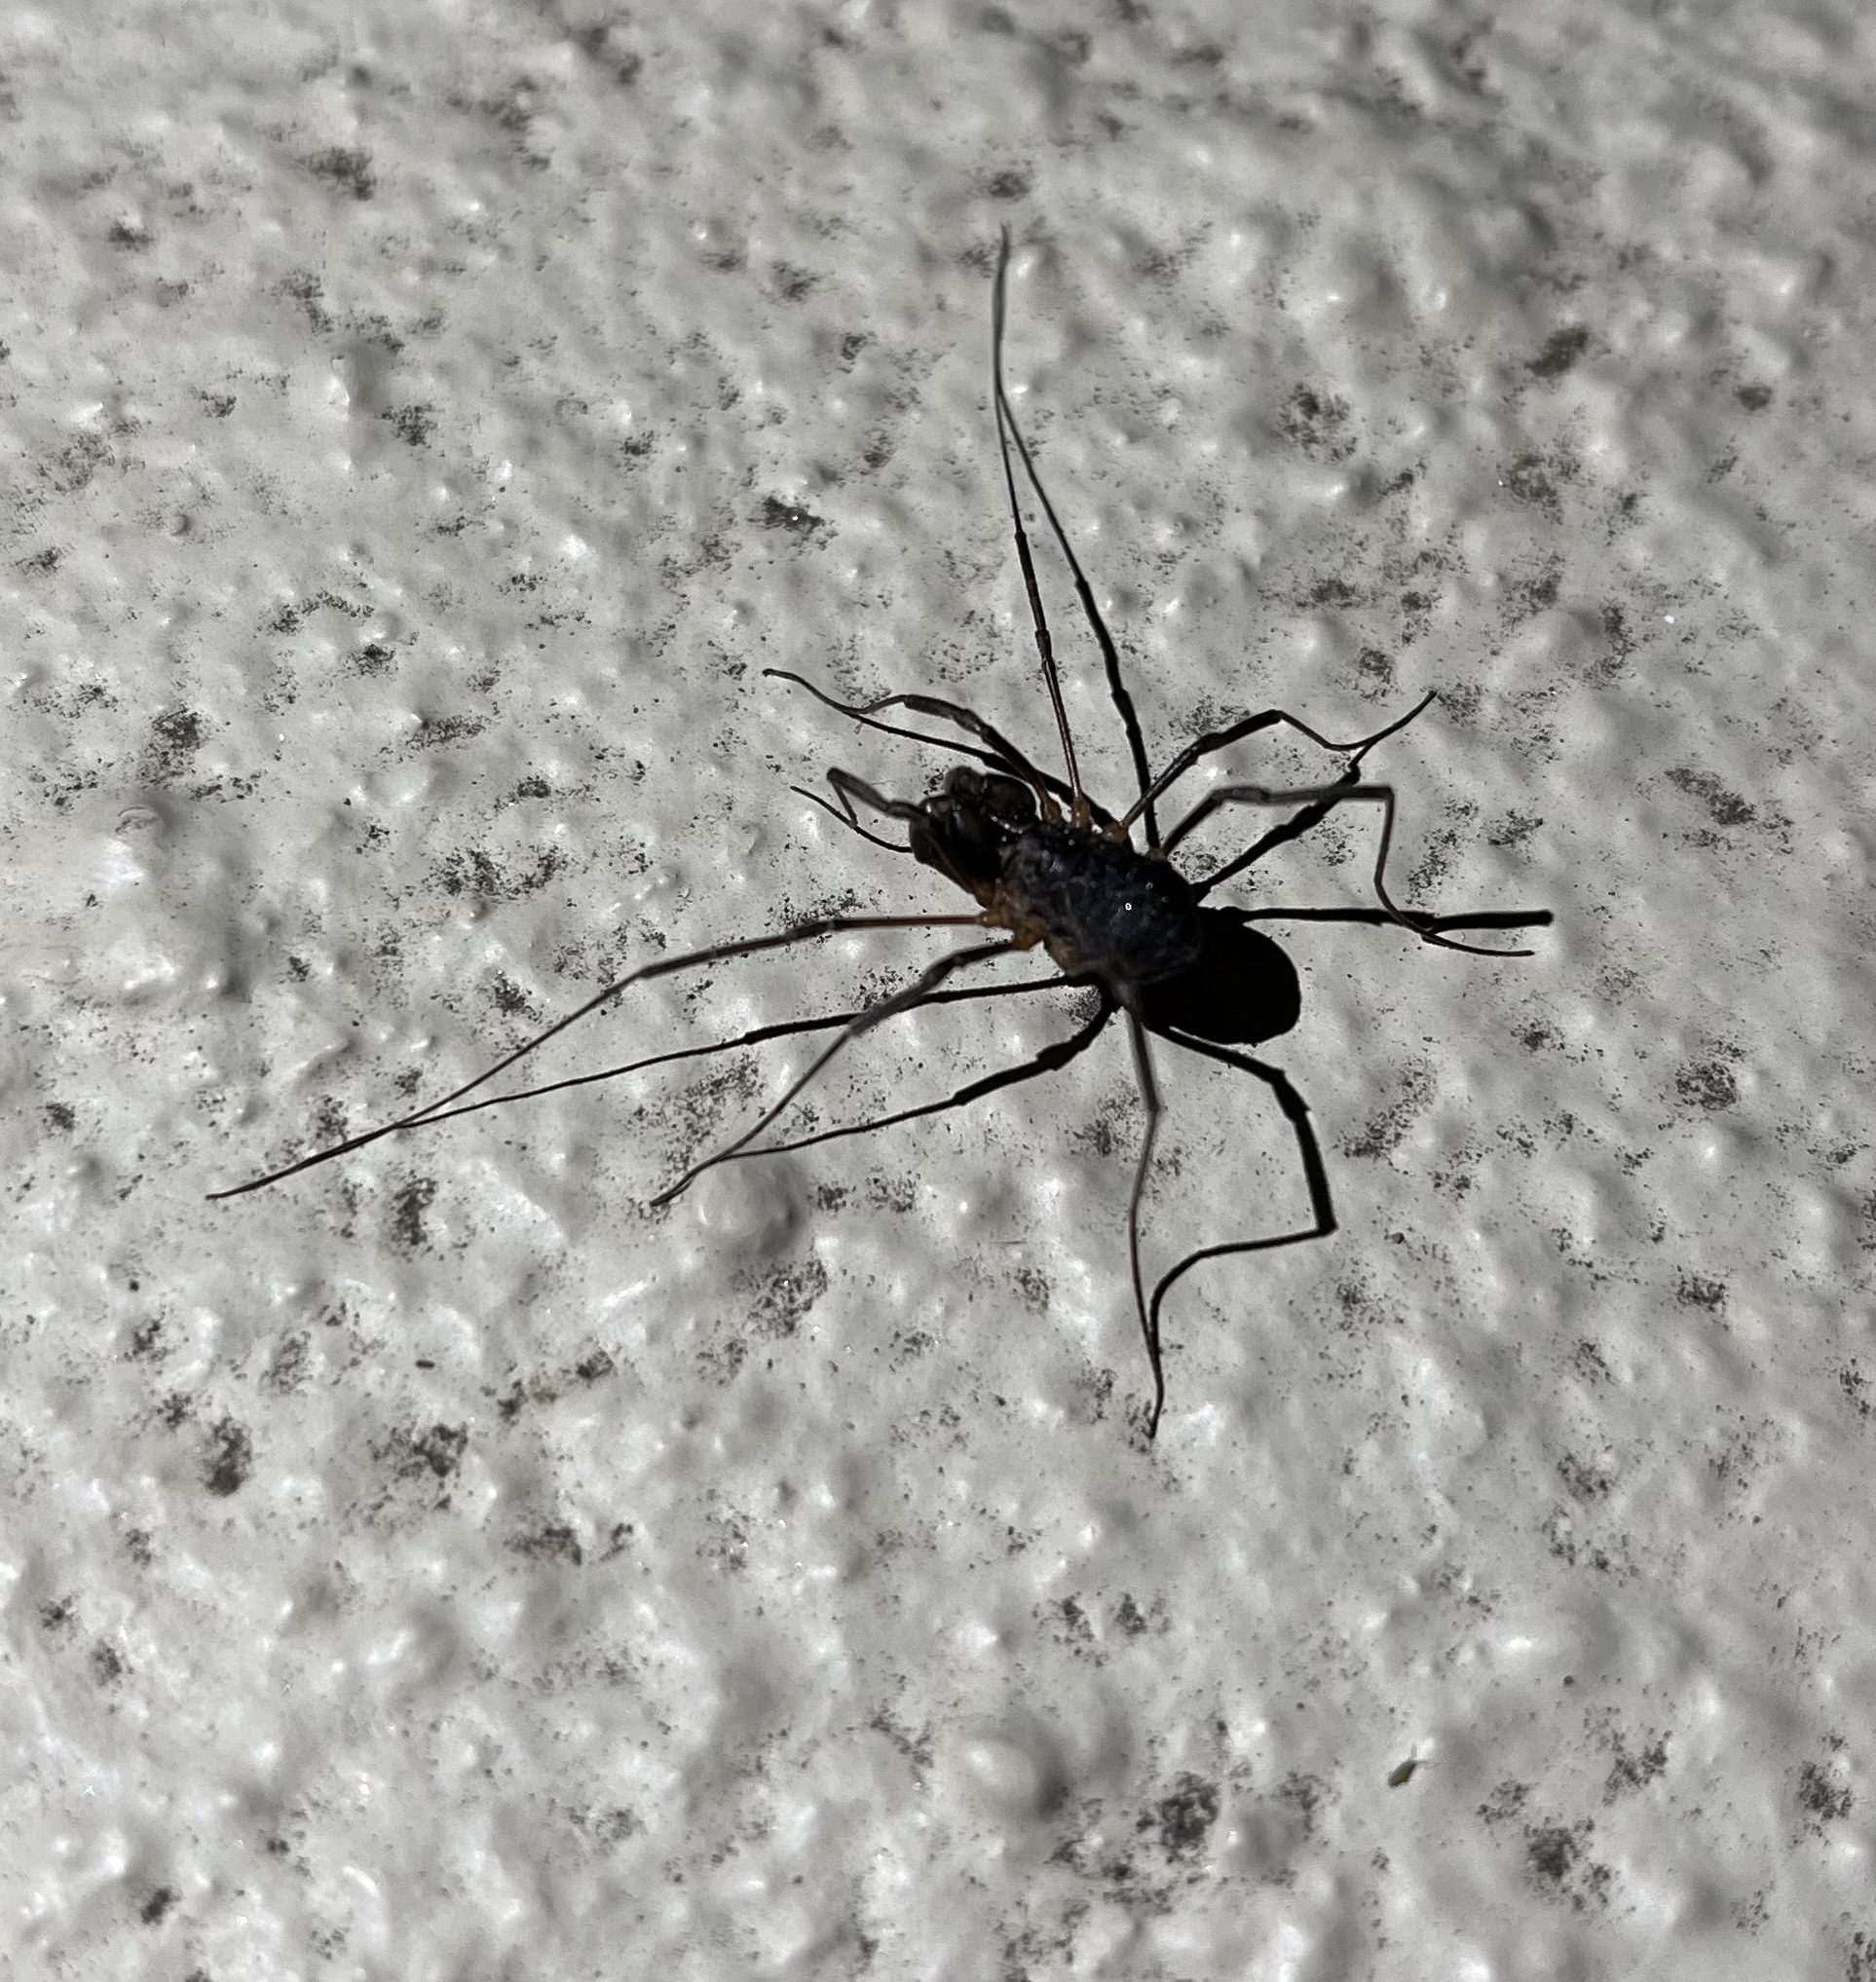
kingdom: Animalia
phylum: Arthropoda
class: Arachnida
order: Opiliones
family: Protolophidae
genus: Protolophus
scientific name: Protolophus singularis
